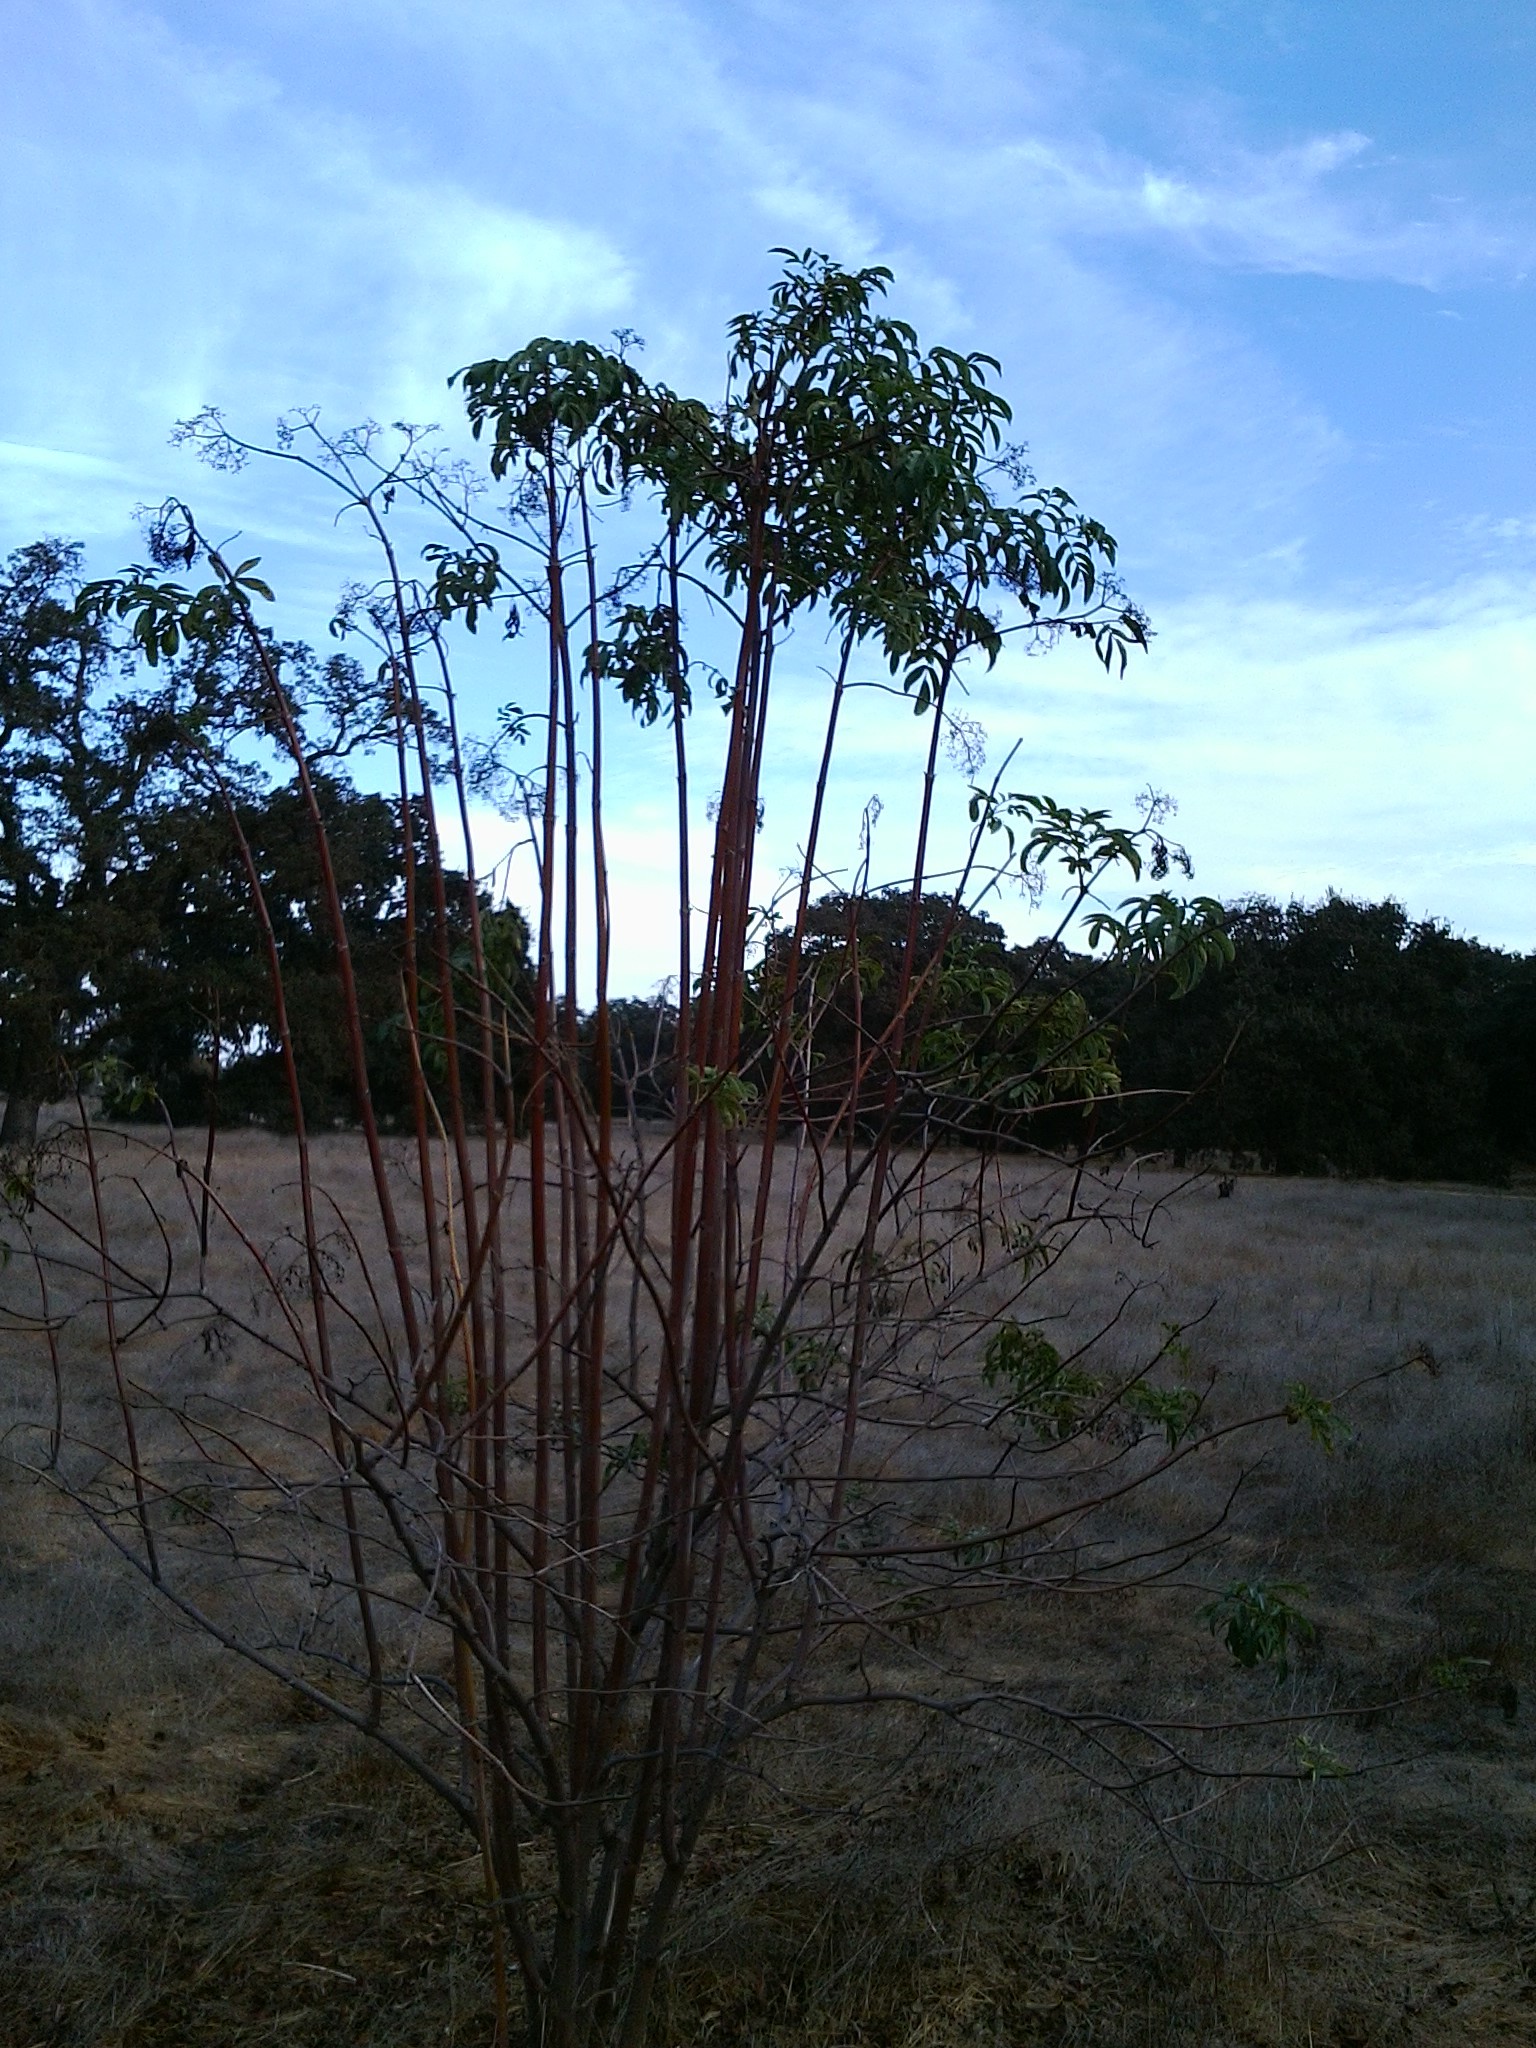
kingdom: Plantae
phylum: Tracheophyta
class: Magnoliopsida
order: Dipsacales
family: Viburnaceae
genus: Sambucus
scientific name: Sambucus cerulea
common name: Blue elder
